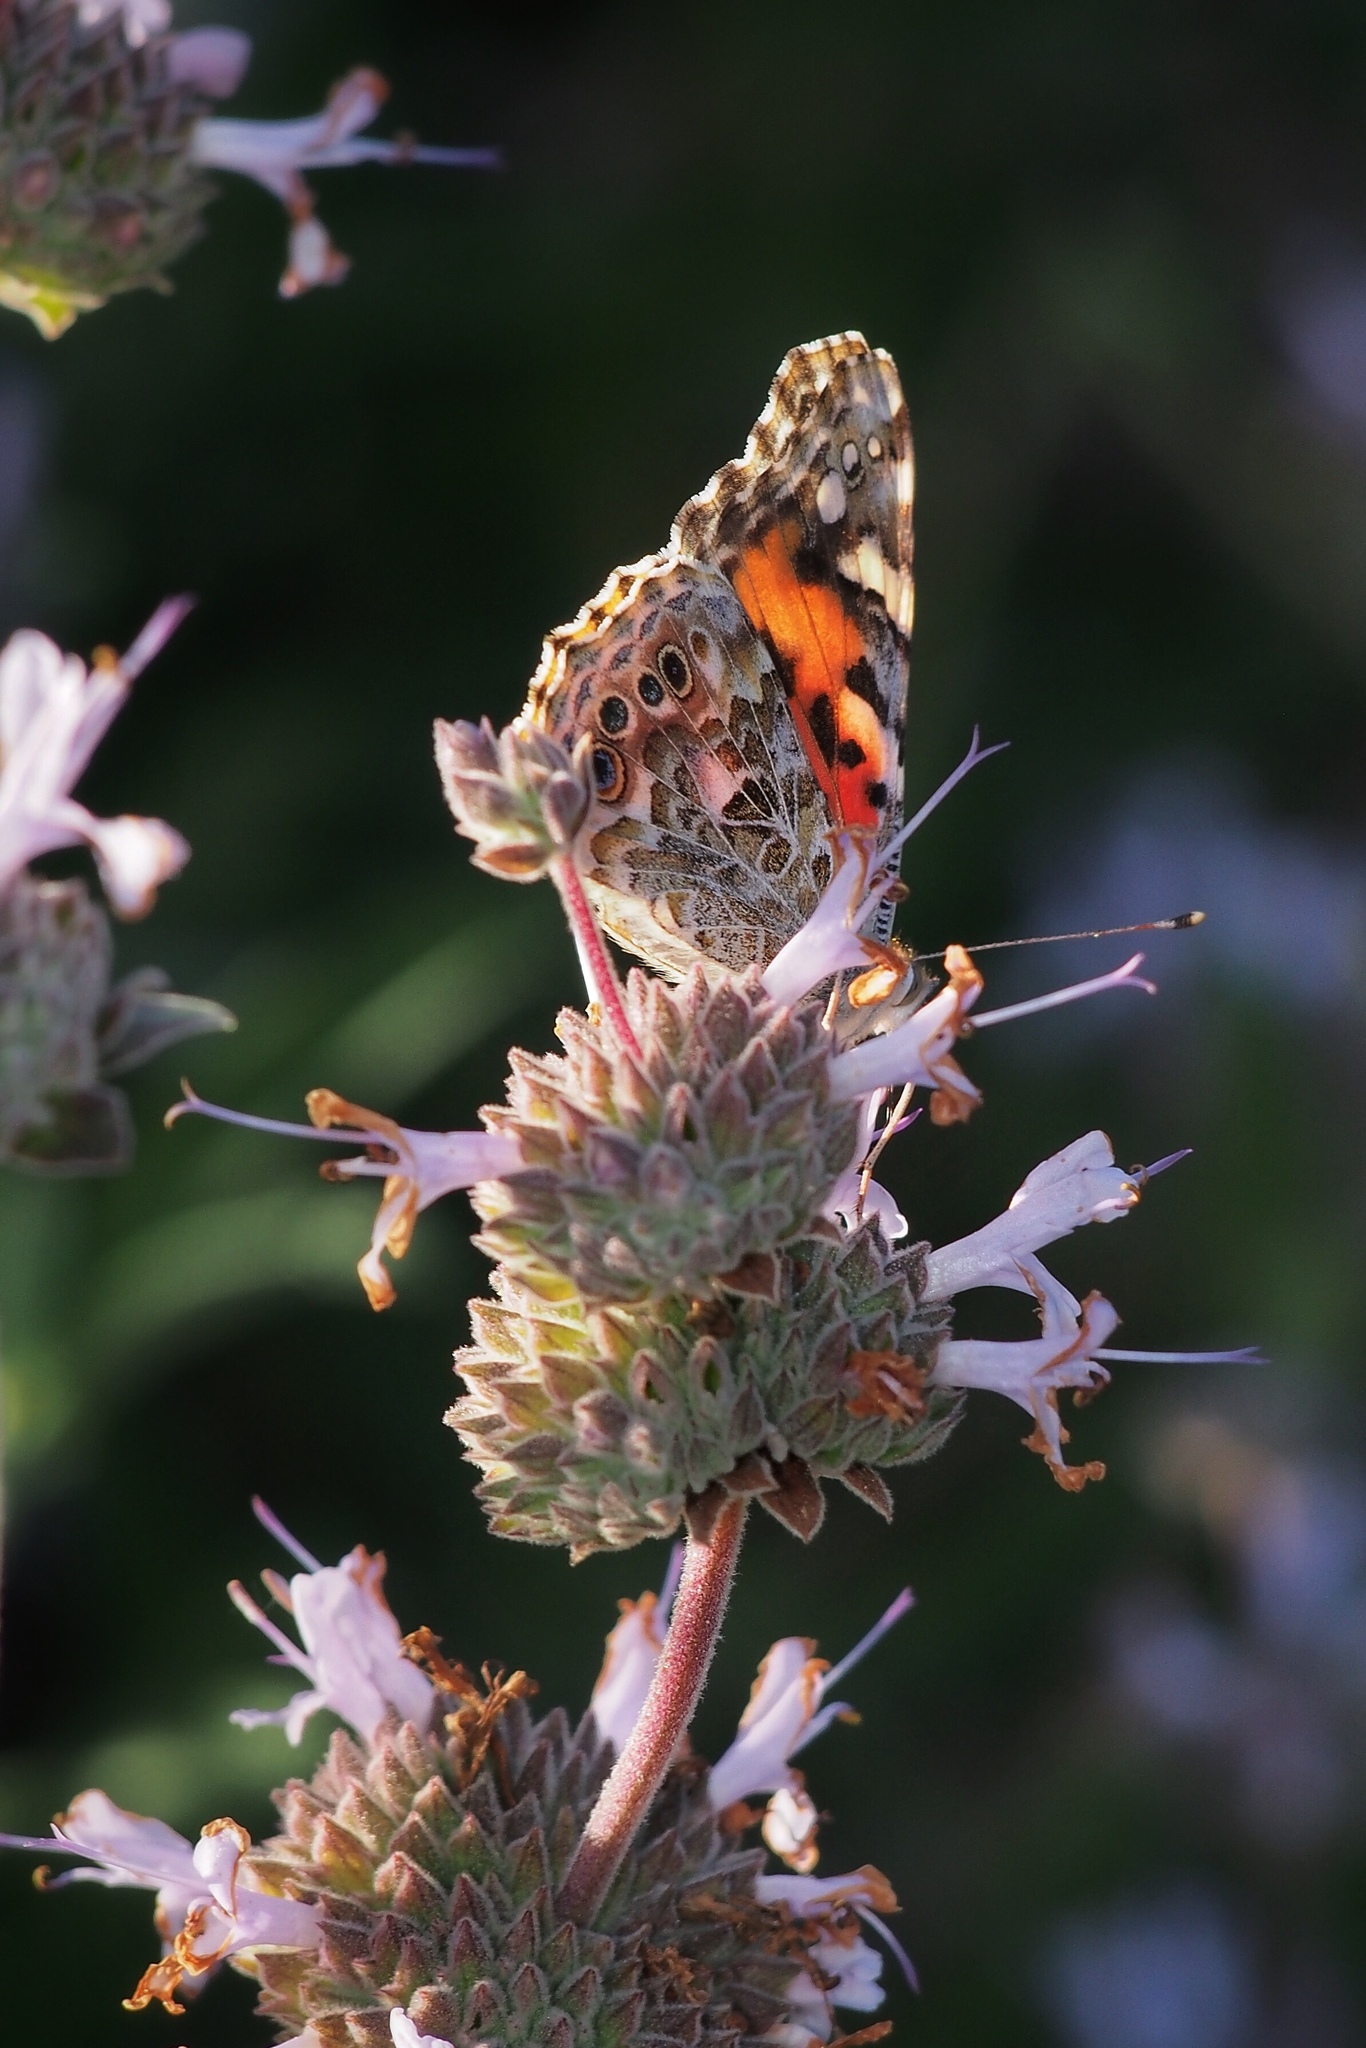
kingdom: Animalia
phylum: Arthropoda
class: Insecta
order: Lepidoptera
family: Nymphalidae
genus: Vanessa
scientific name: Vanessa cardui
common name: Painted lady
